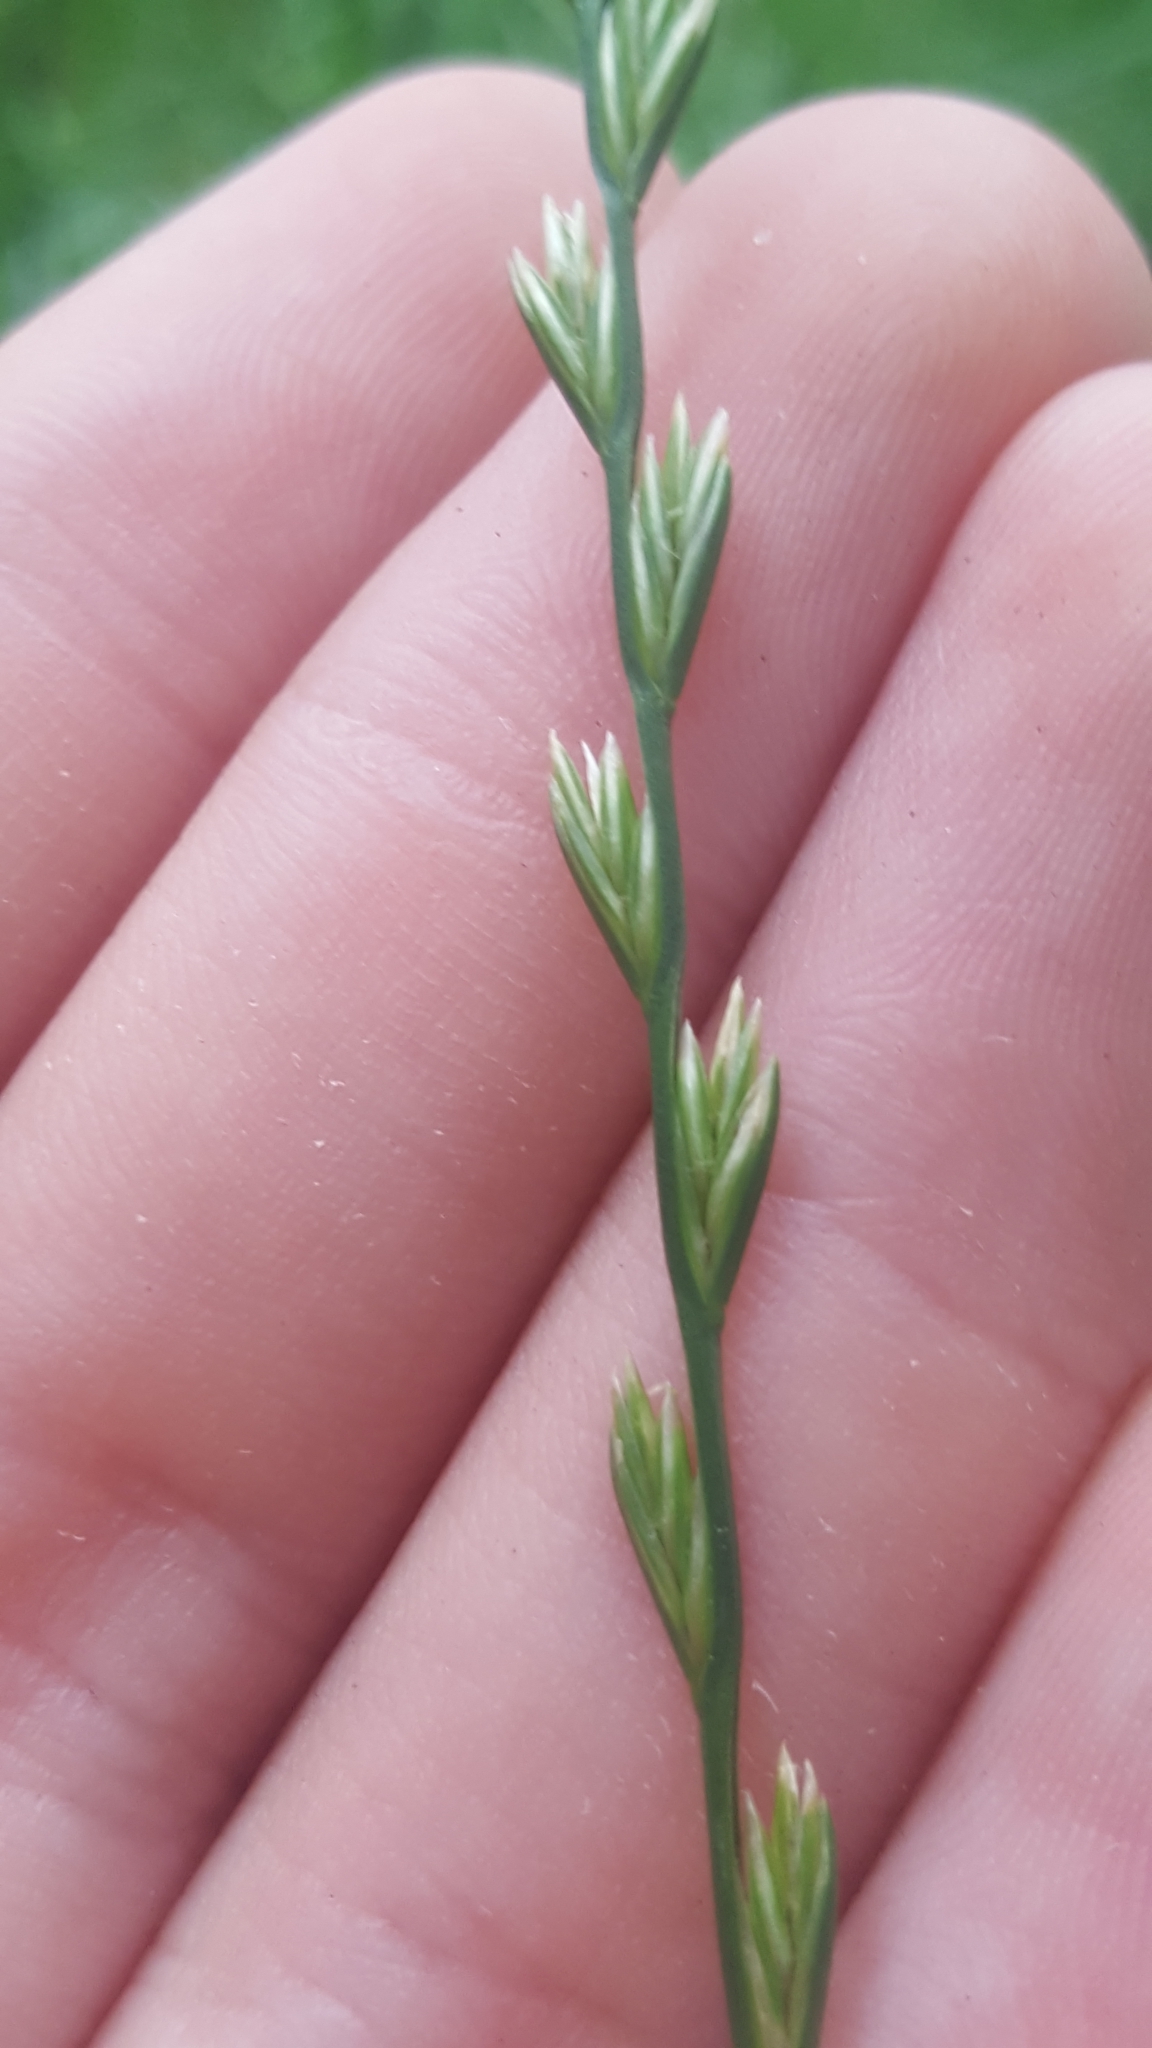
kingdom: Plantae
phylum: Tracheophyta
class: Liliopsida
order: Poales
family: Poaceae
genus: Lolium
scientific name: Lolium perenne
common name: Perennial ryegrass
